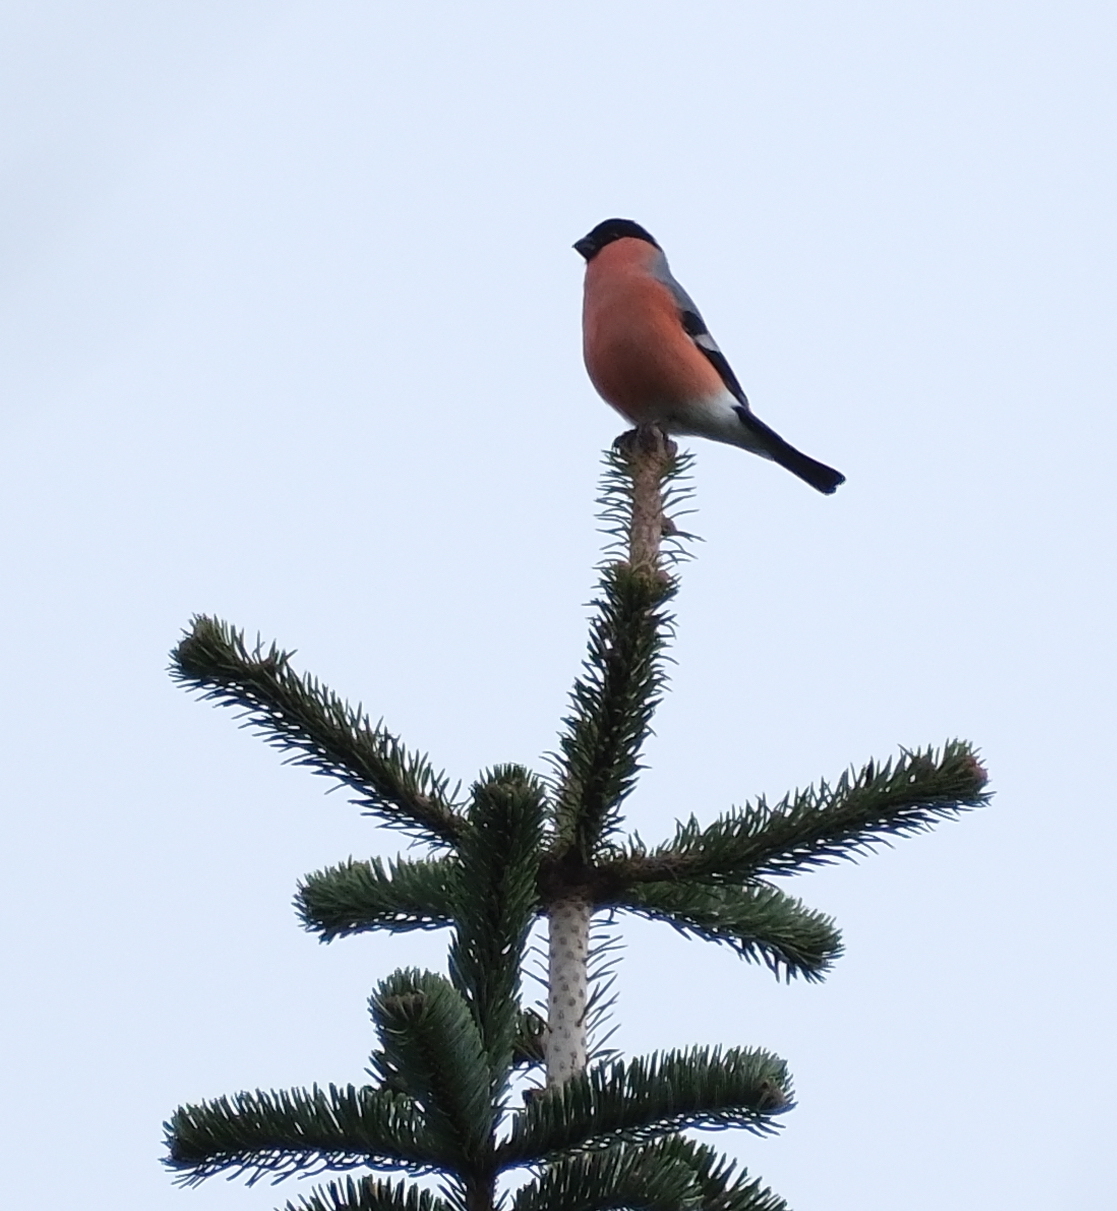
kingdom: Animalia
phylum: Chordata
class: Aves
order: Passeriformes
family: Fringillidae
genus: Pyrrhula
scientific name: Pyrrhula pyrrhula
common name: Eurasian bullfinch
